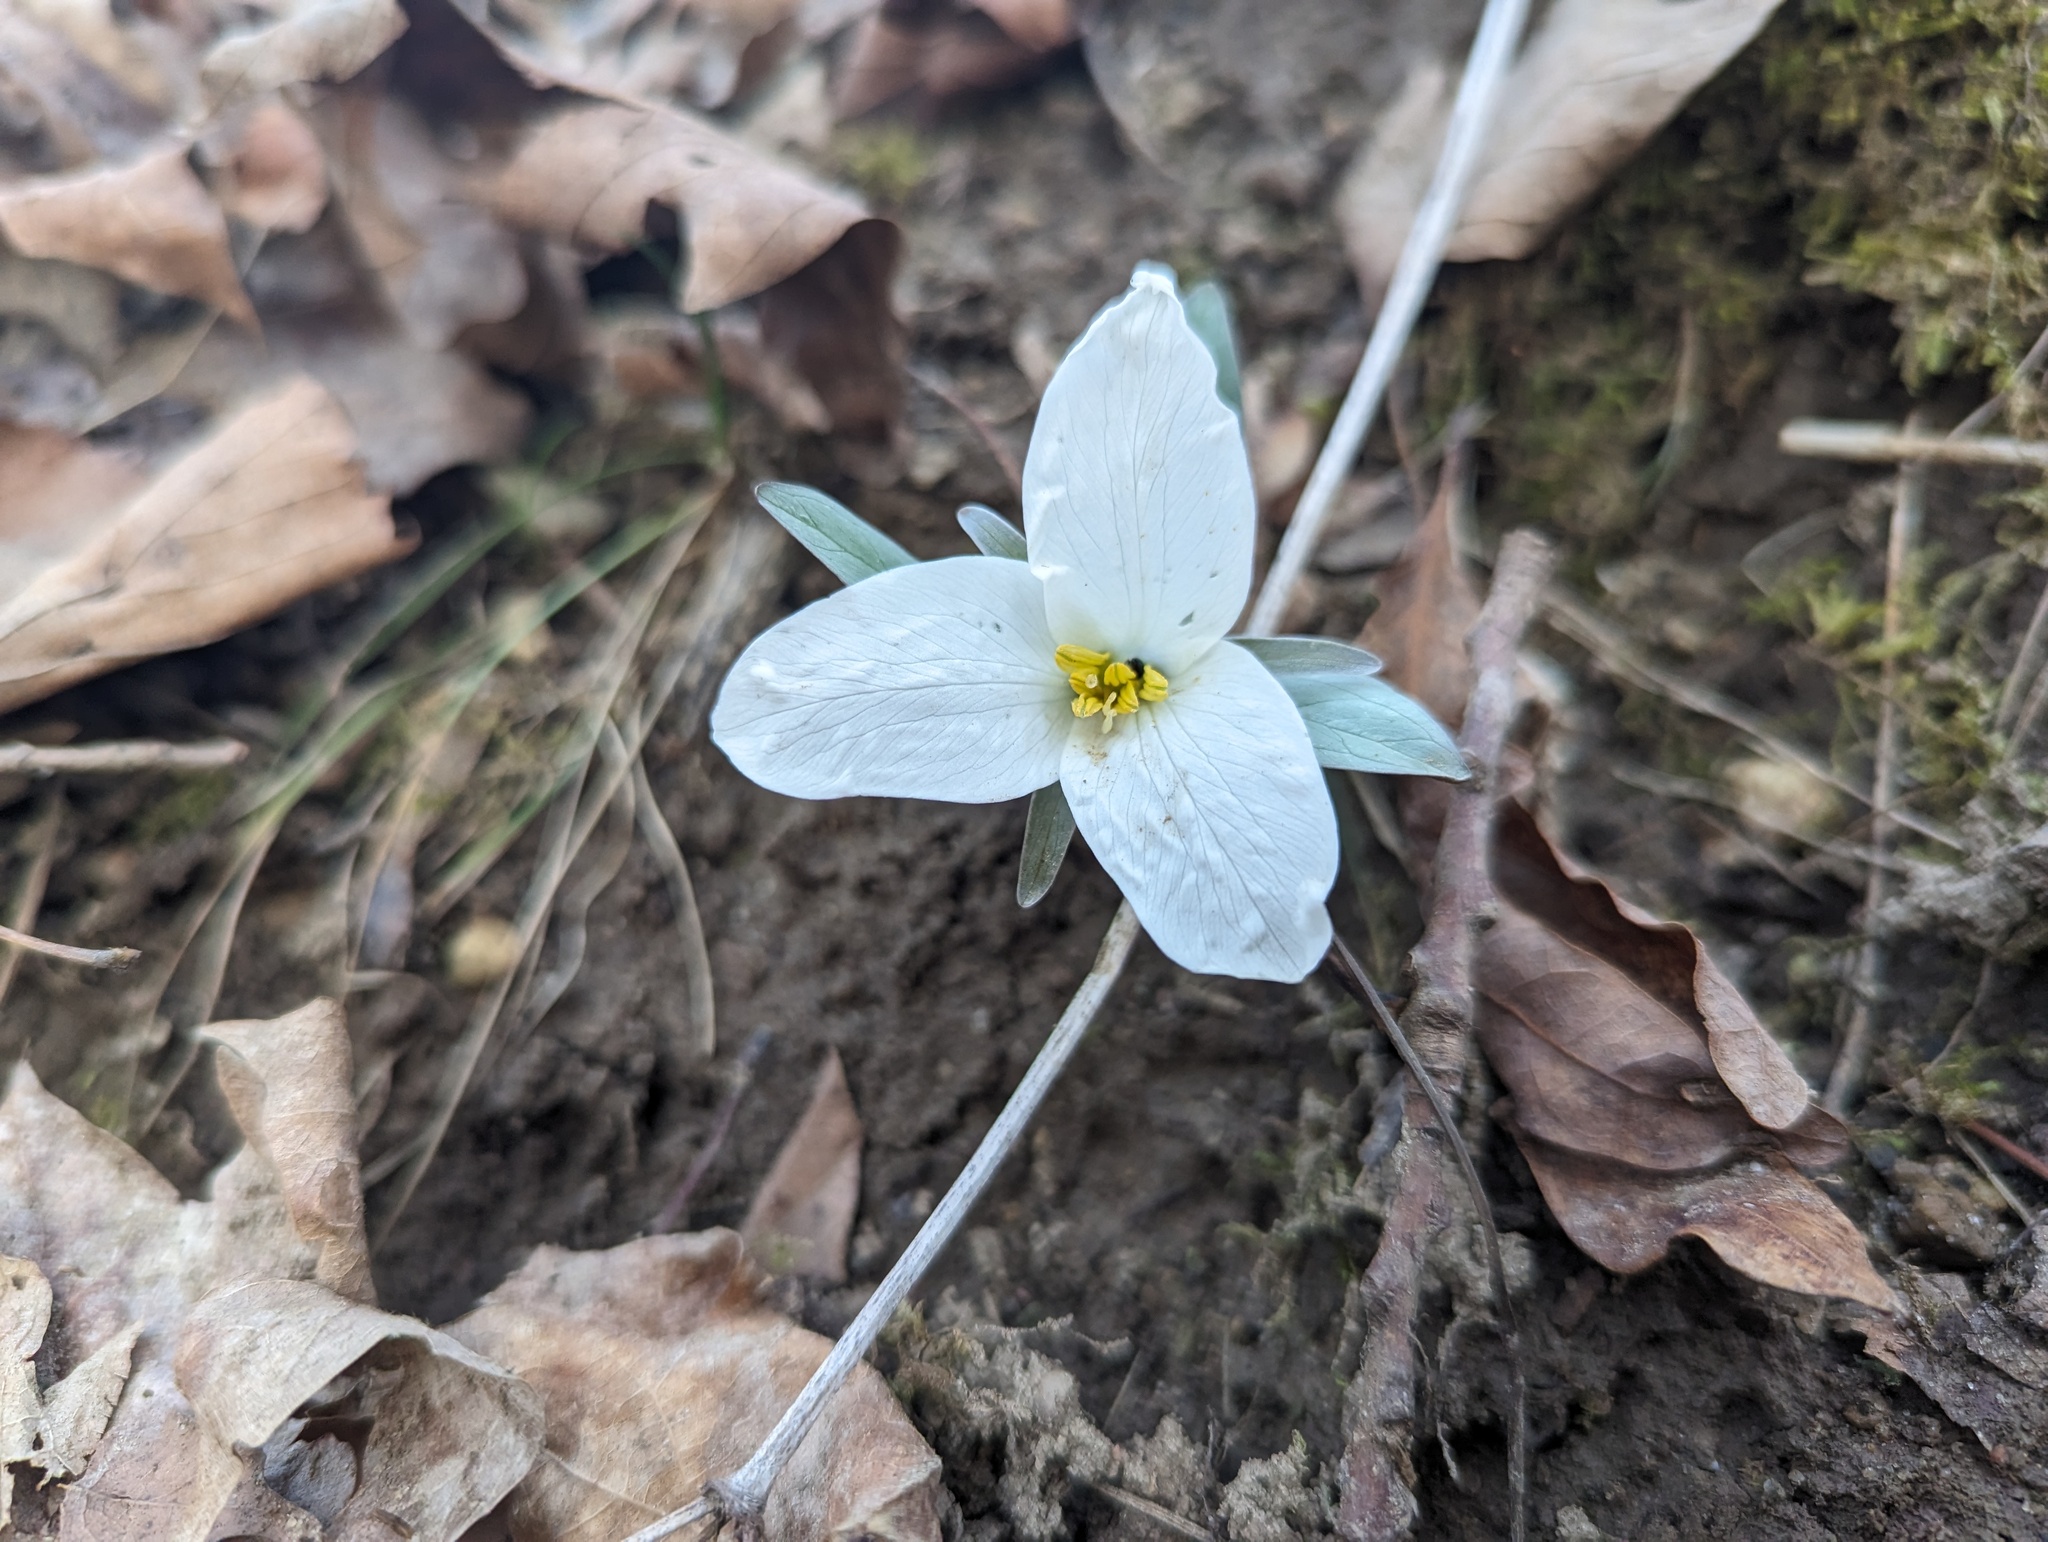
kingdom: Plantae
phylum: Tracheophyta
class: Liliopsida
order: Liliales
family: Melanthiaceae
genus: Trillium
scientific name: Trillium nivale
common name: Dwarf white trillium
